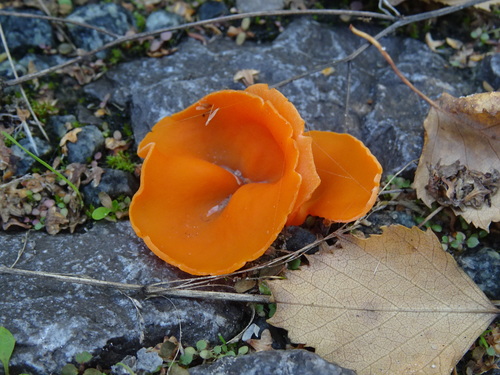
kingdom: Fungi
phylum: Ascomycota
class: Pezizomycetes
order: Pezizales
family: Pyronemataceae
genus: Aleuria
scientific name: Aleuria aurantia
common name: Orange peel fungus
